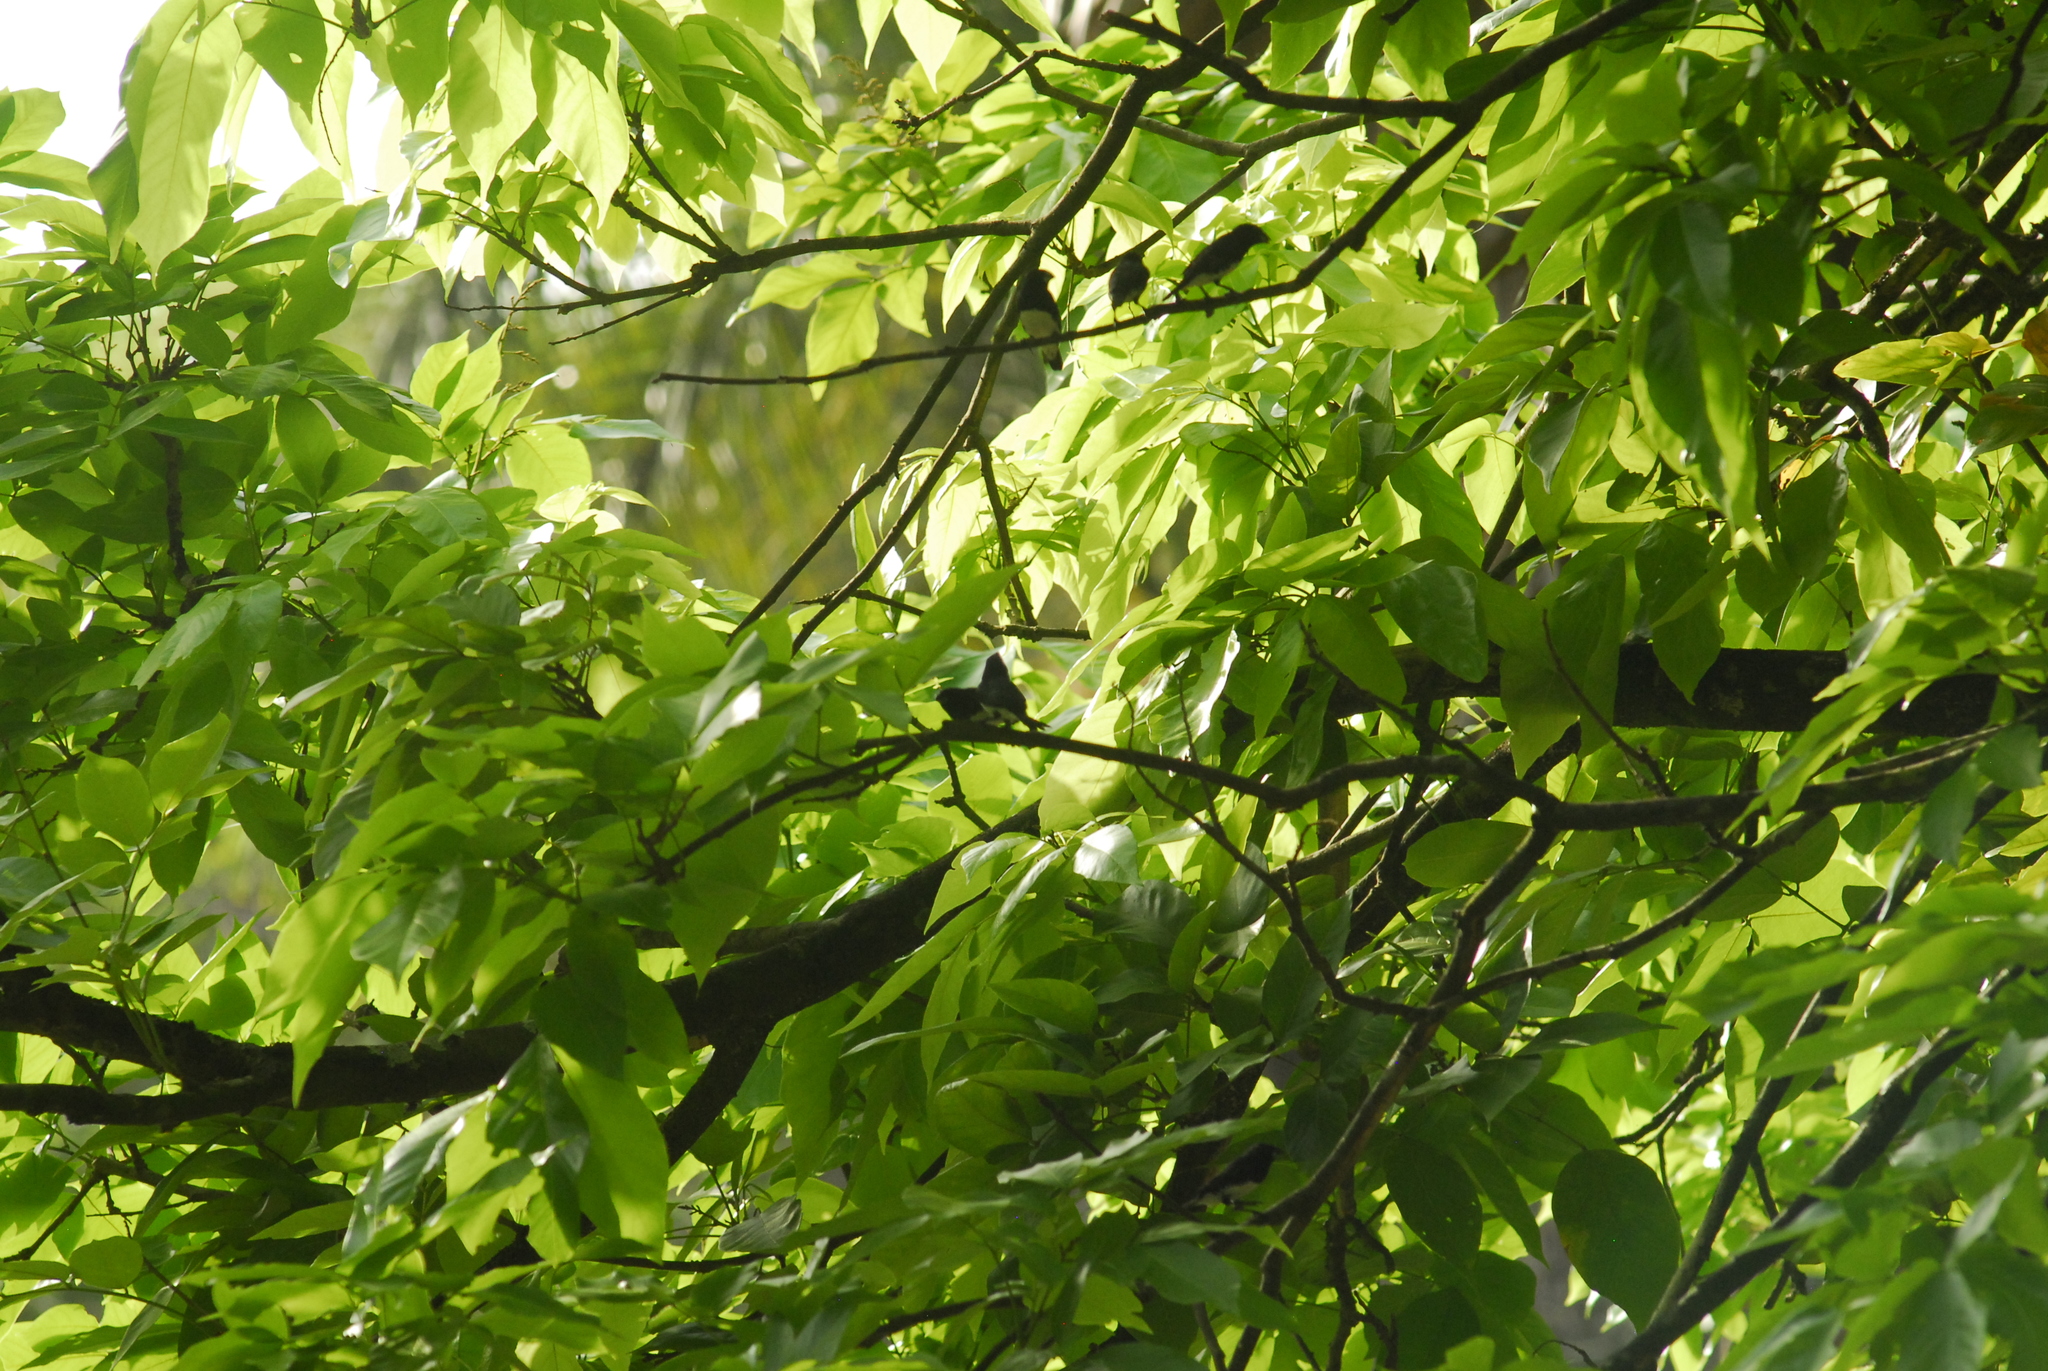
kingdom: Animalia
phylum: Chordata
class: Aves
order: Passeriformes
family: Estrildidae
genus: Lonchura
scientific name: Lonchura bicolor
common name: Black-and-white mannikin
